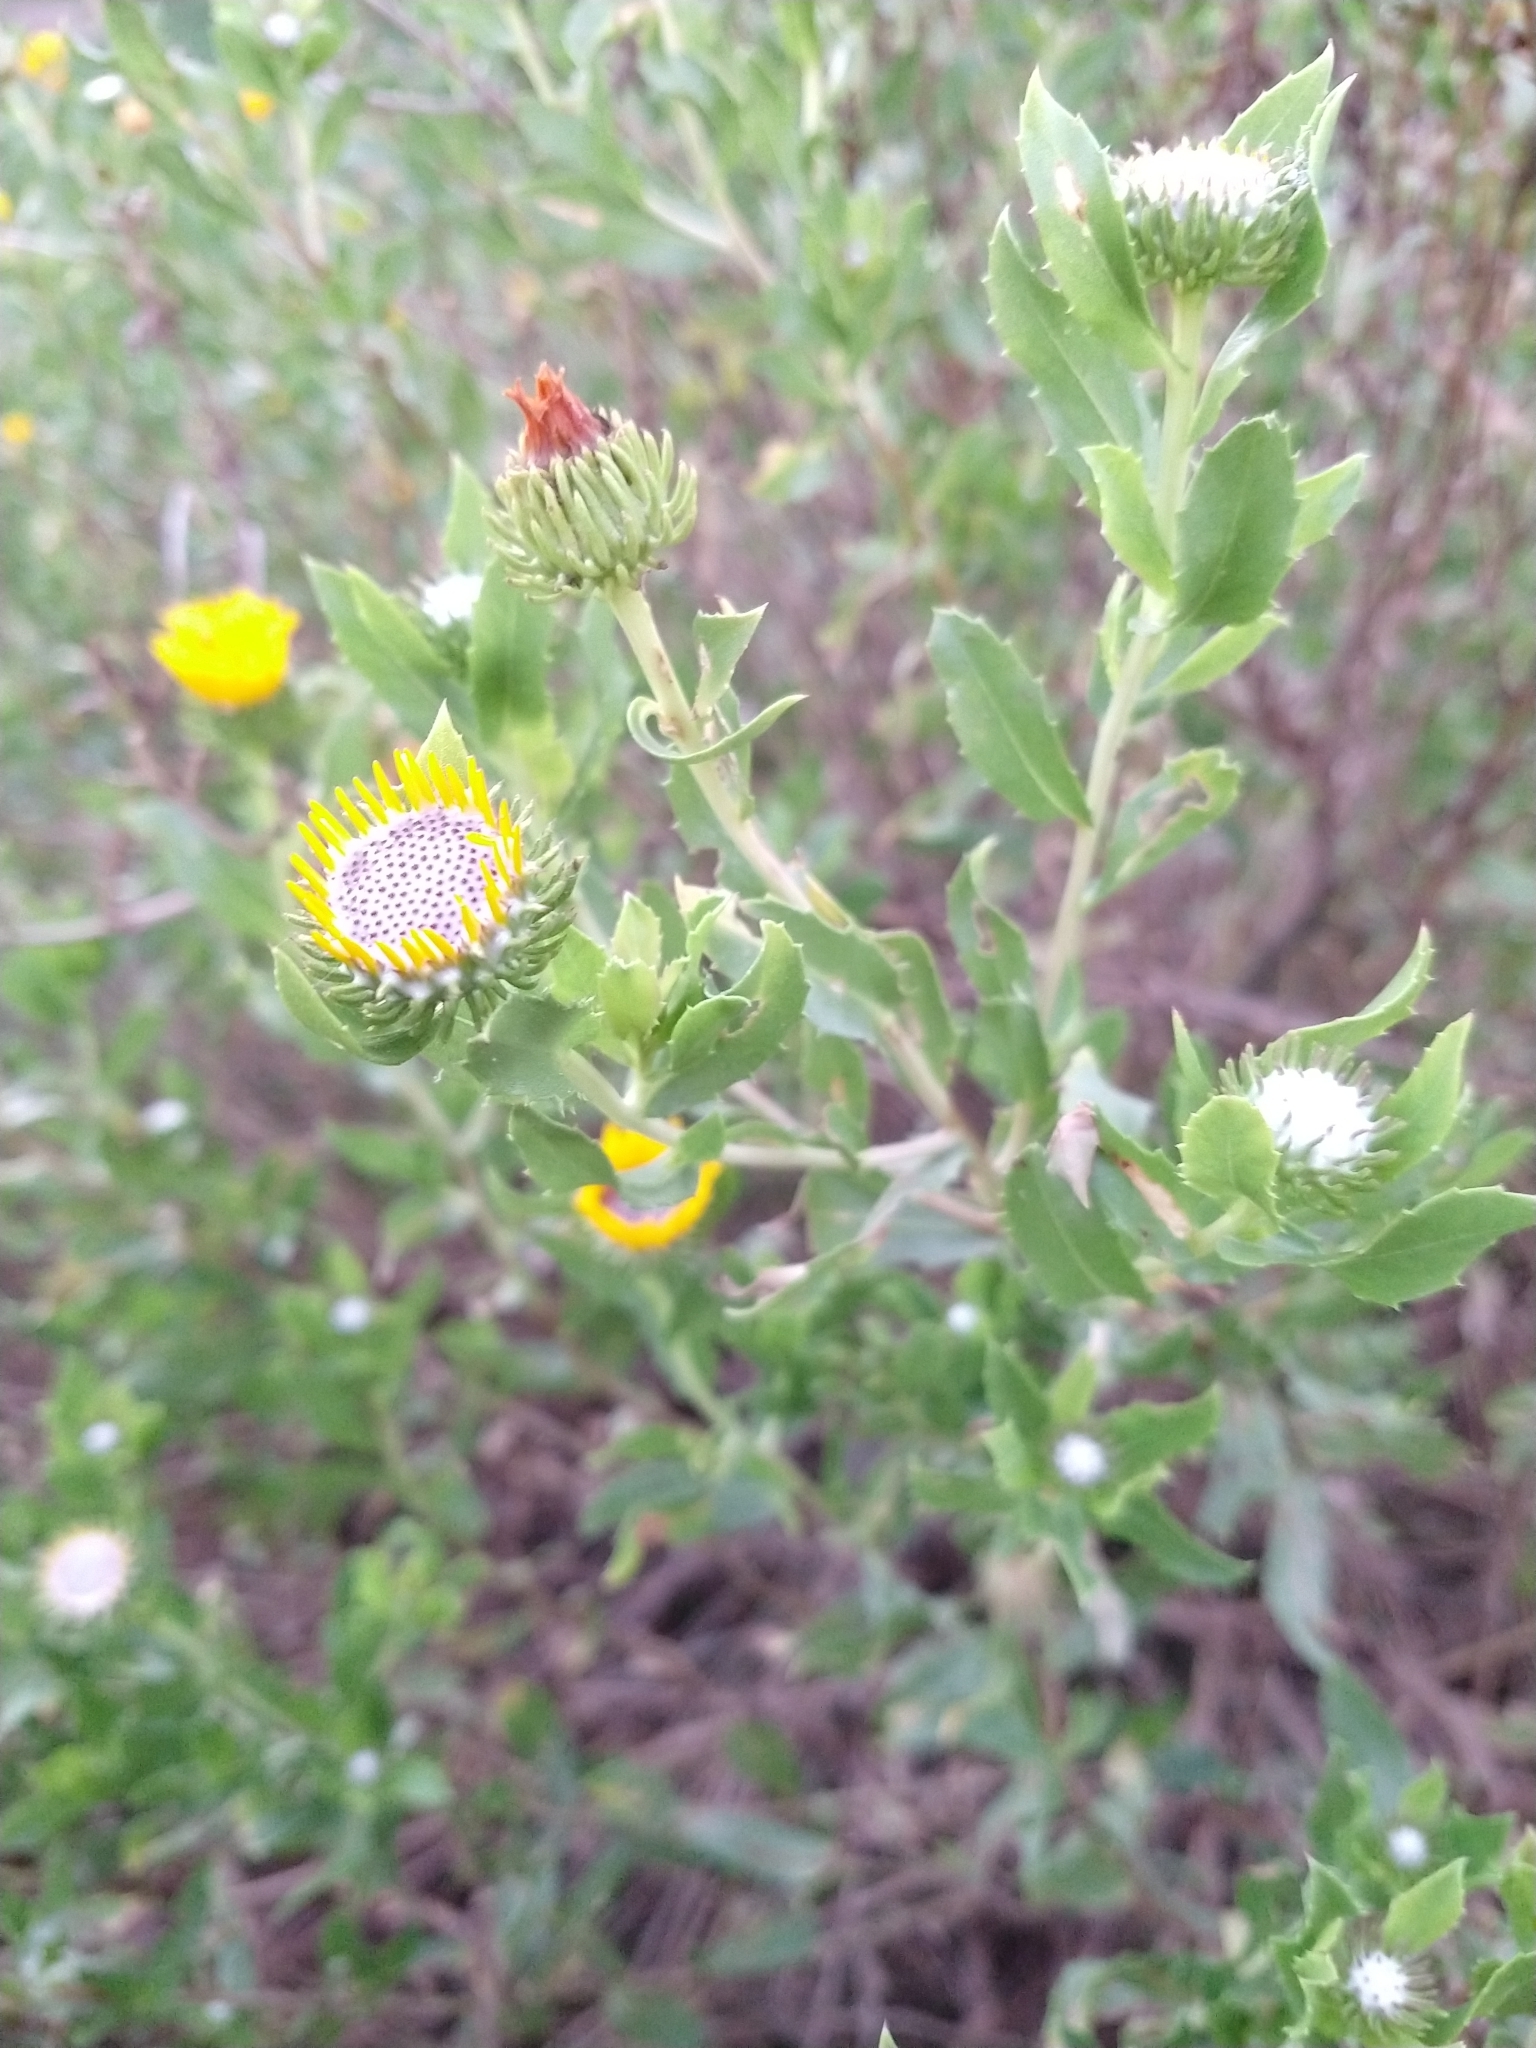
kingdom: Plantae
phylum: Tracheophyta
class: Magnoliopsida
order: Asterales
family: Asteraceae
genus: Grindelia
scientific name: Grindelia pulchella
